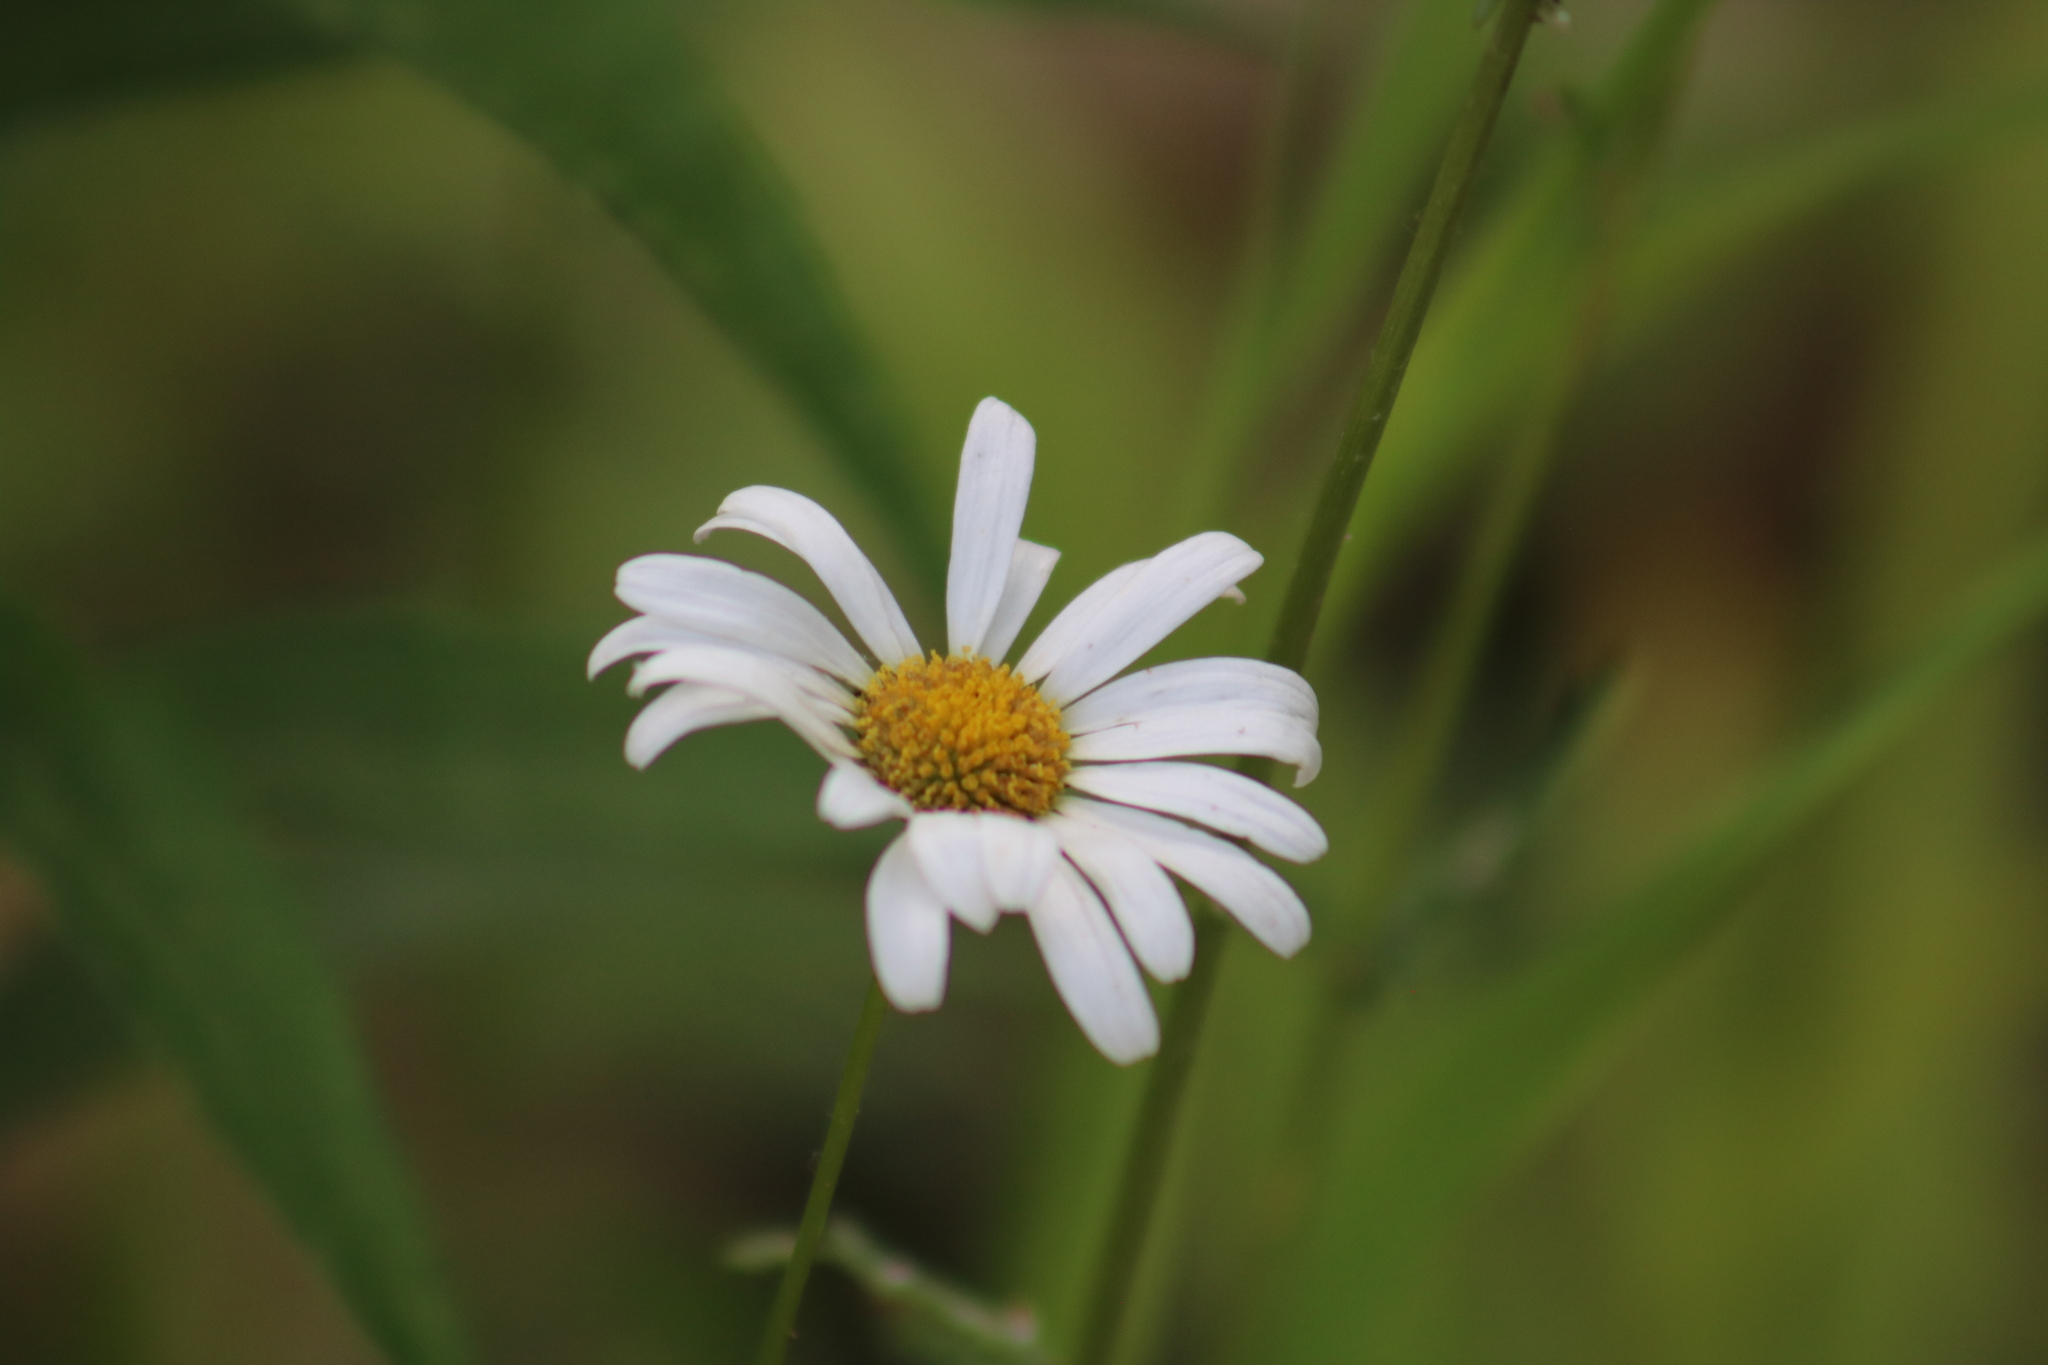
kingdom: Plantae
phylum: Tracheophyta
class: Magnoliopsida
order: Asterales
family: Asteraceae
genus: Leucanthemum
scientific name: Leucanthemum vulgare
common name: Oxeye daisy
